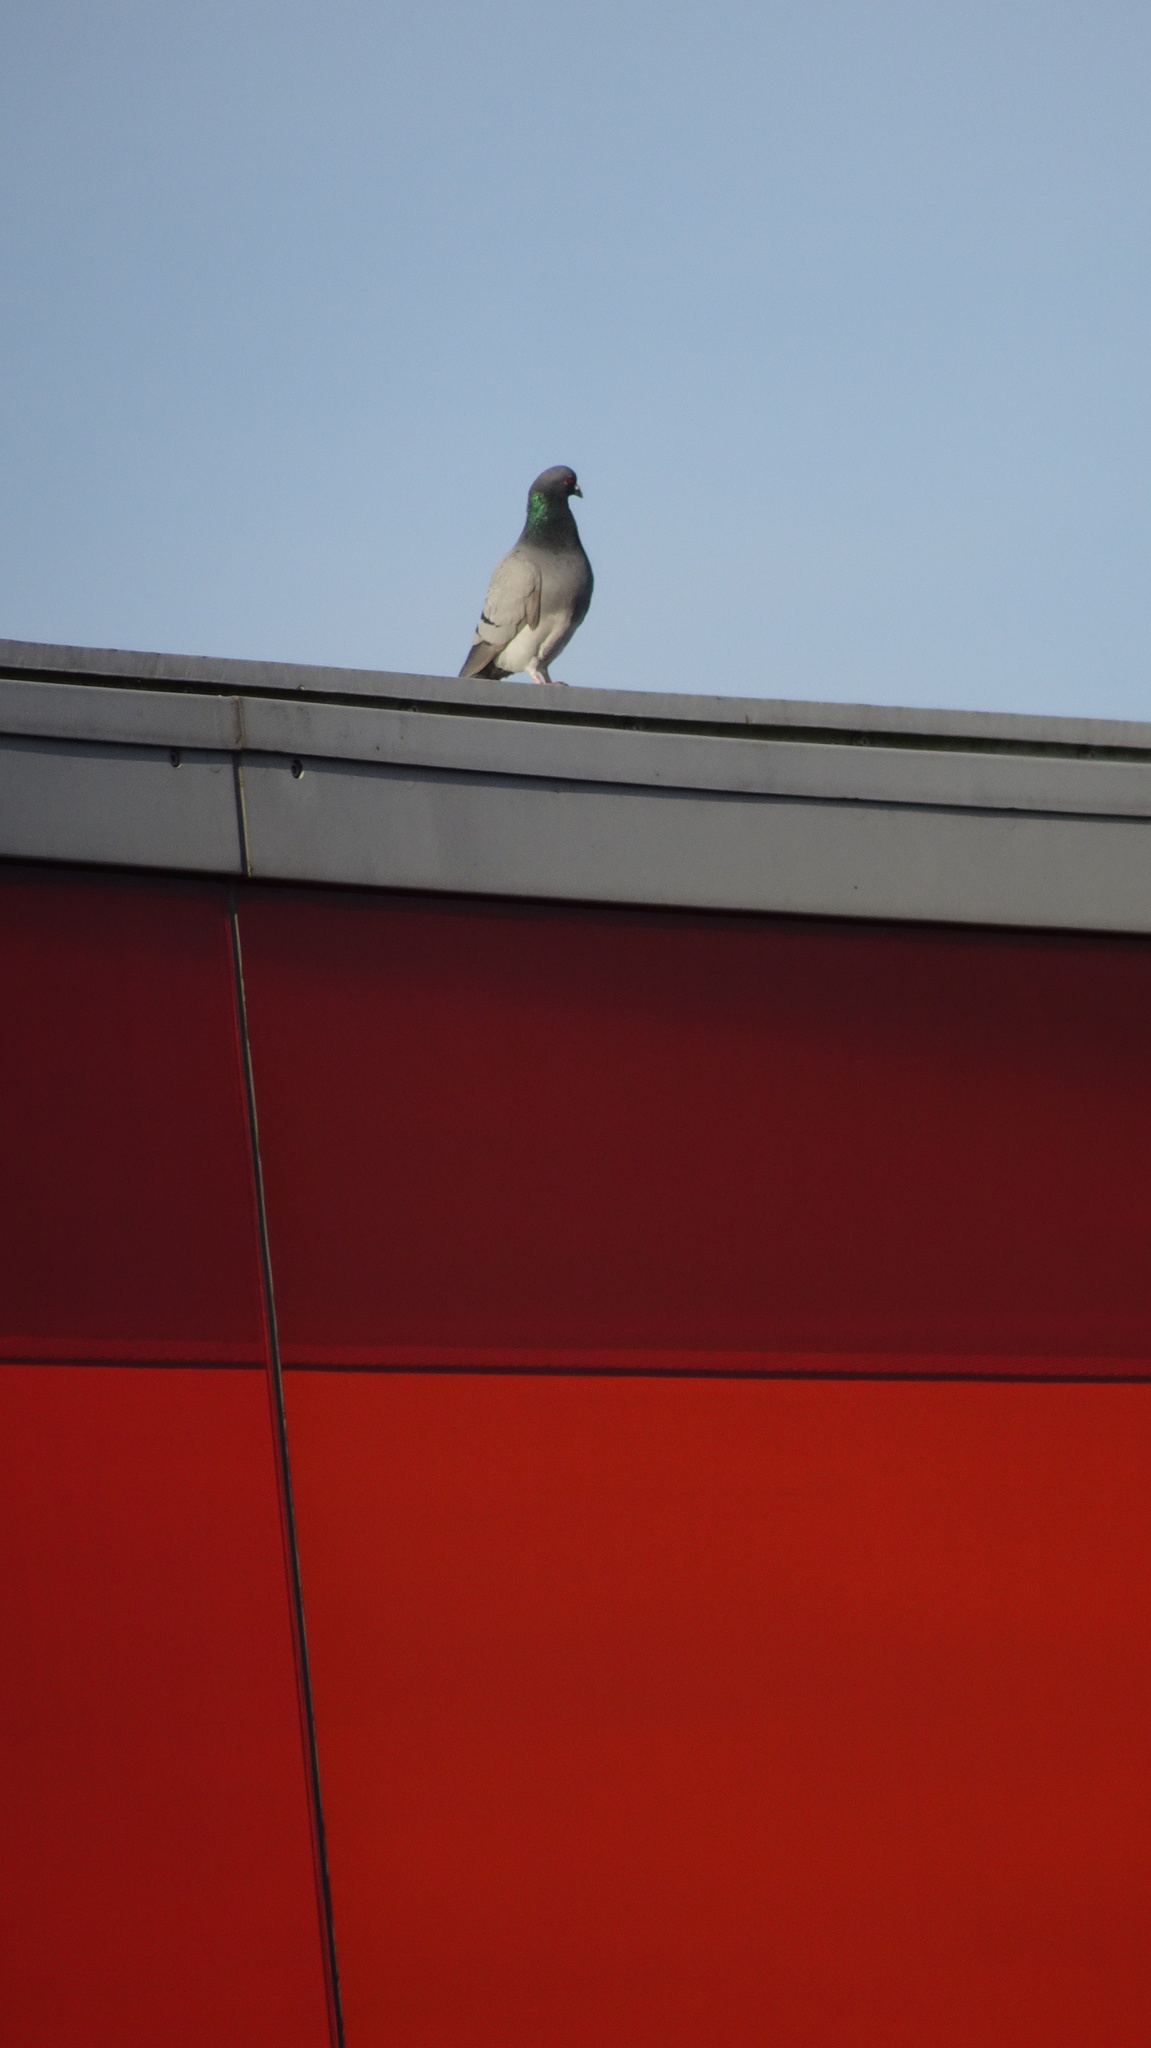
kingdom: Animalia
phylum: Chordata
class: Aves
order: Columbiformes
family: Columbidae
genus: Columba
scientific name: Columba livia
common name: Rock pigeon
